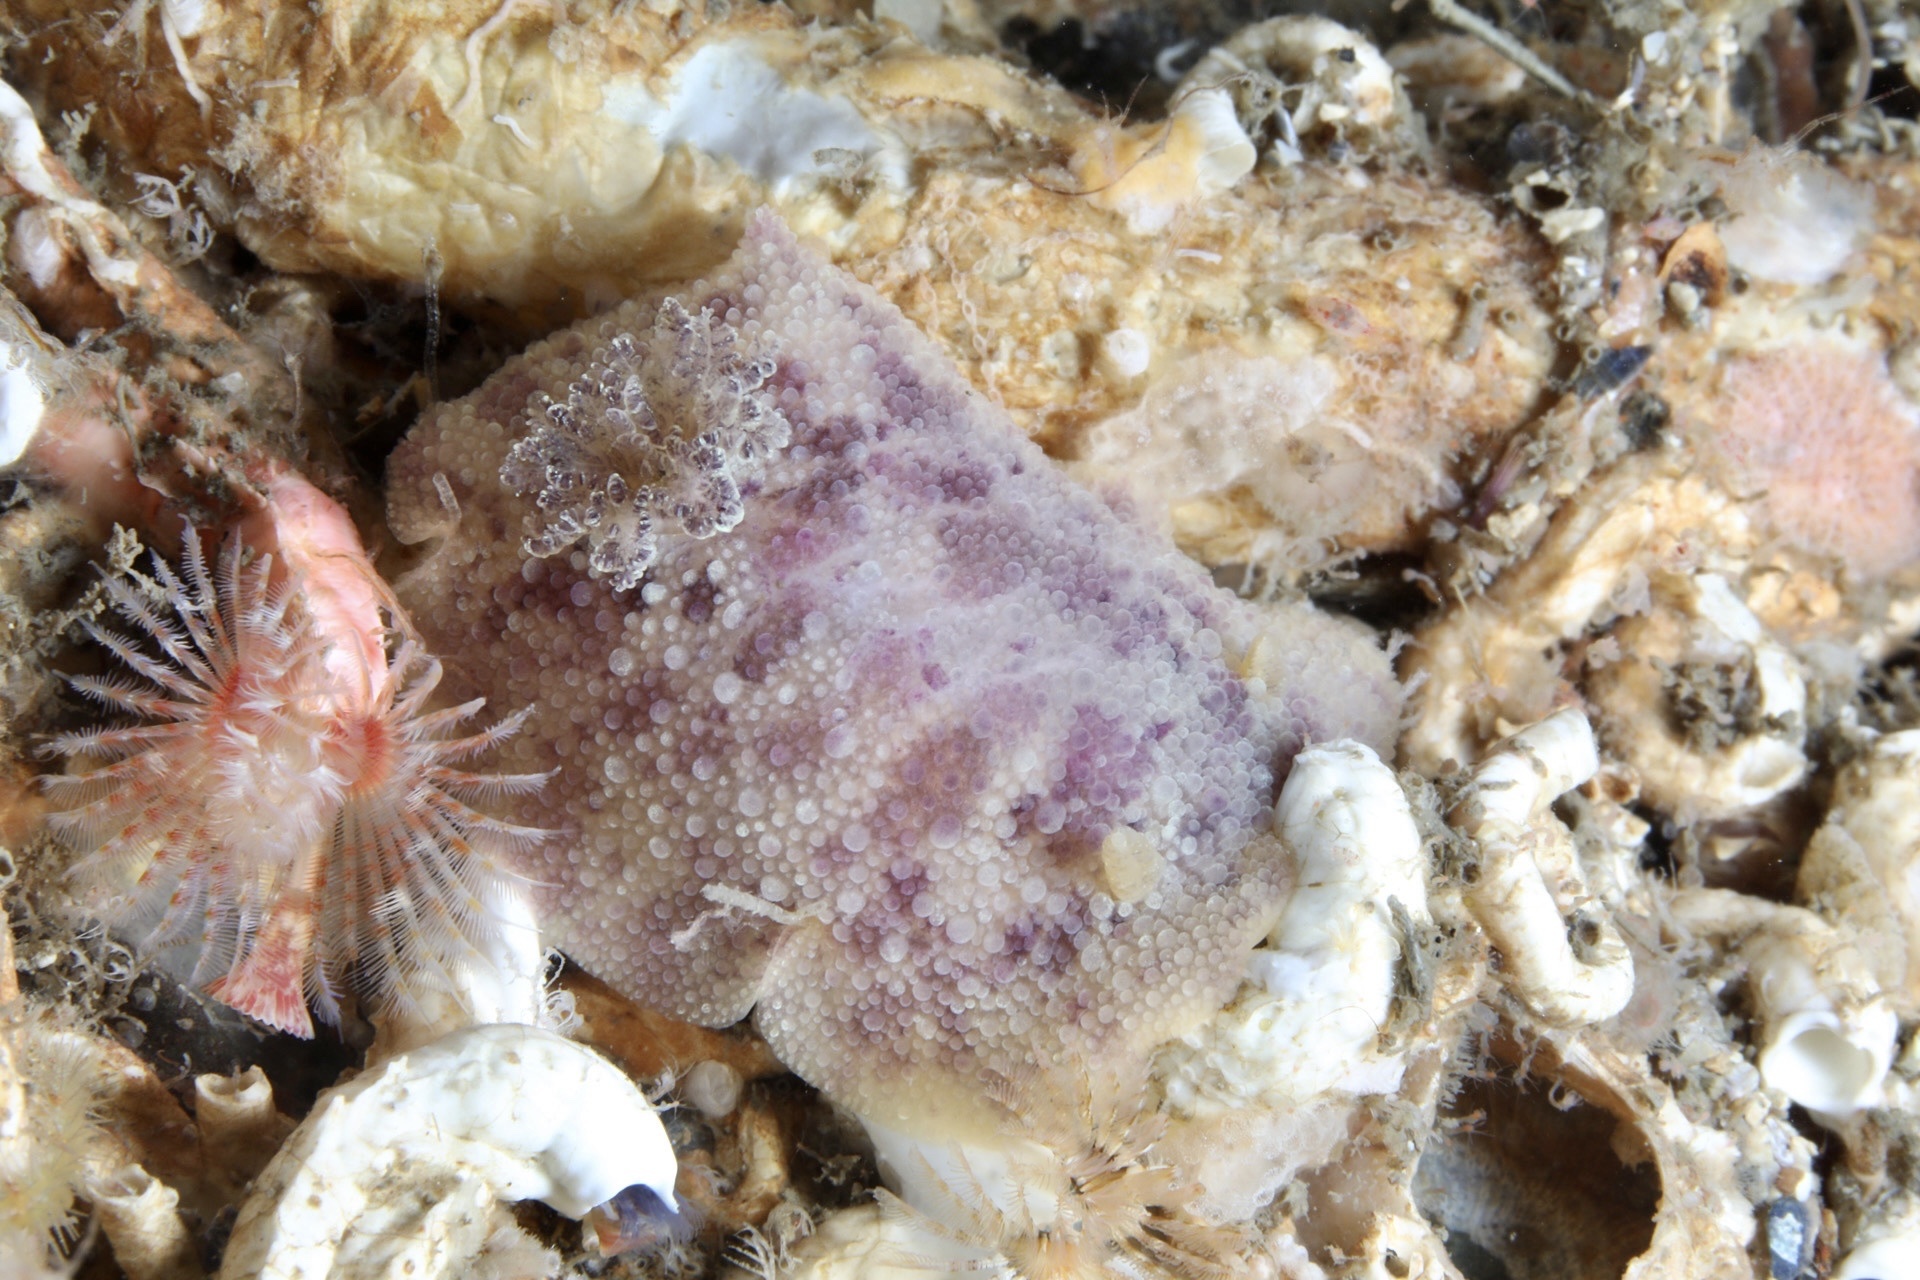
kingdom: Animalia
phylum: Mollusca
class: Gastropoda
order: Nudibranchia
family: Dorididae
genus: Doris
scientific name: Doris pseudoargus
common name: Sea lemon
